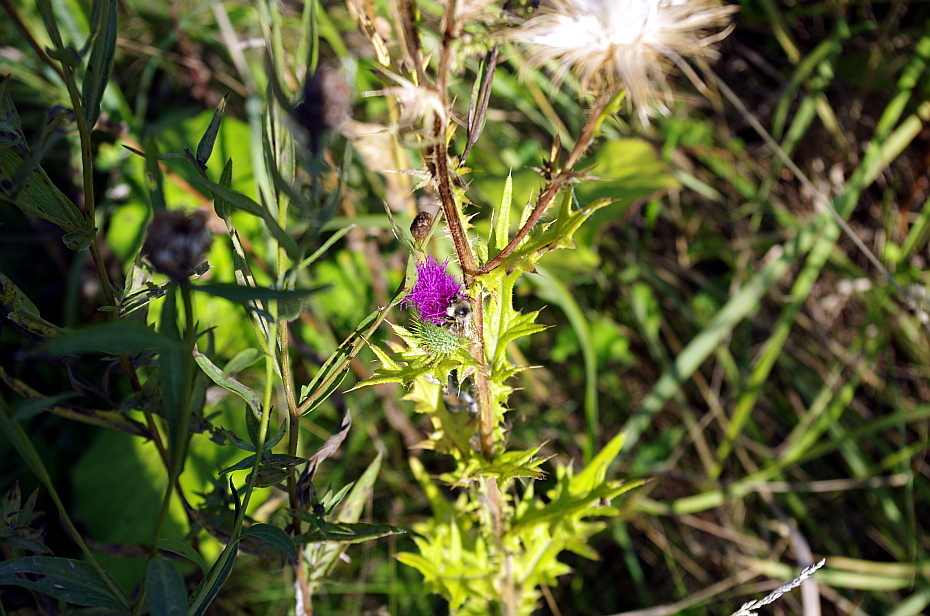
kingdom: Plantae
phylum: Tracheophyta
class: Magnoliopsida
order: Asterales
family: Asteraceae
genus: Cirsium
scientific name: Cirsium vulgare
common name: Bull thistle
